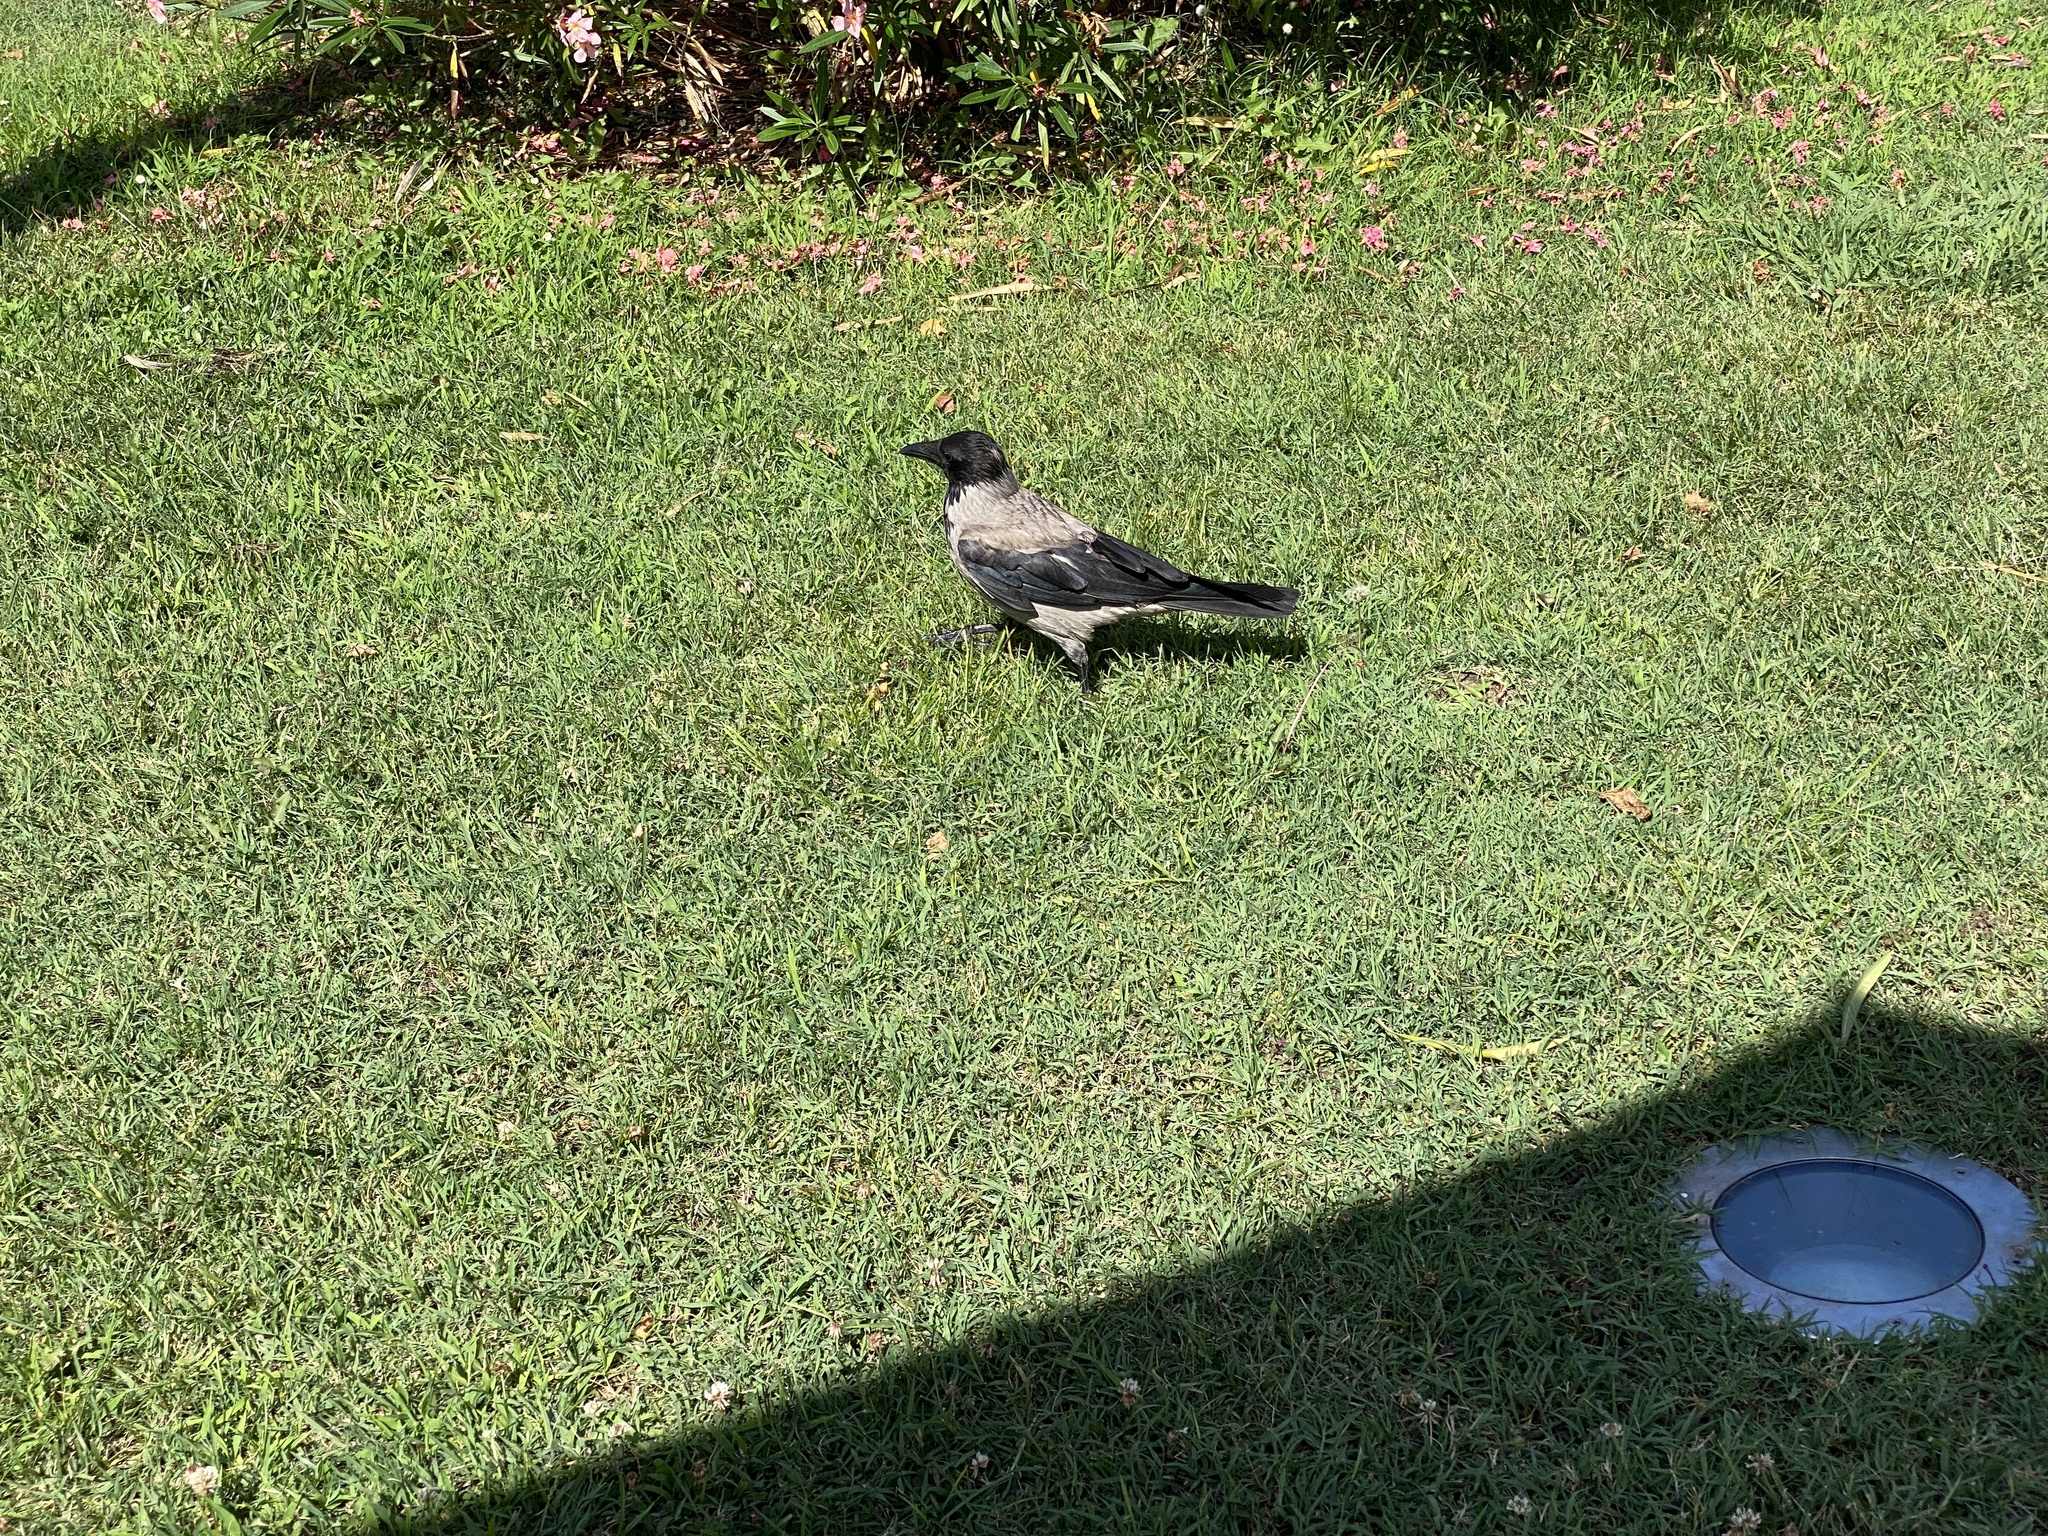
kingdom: Animalia
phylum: Chordata
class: Aves
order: Passeriformes
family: Corvidae
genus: Corvus
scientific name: Corvus cornix
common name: Hooded crow
